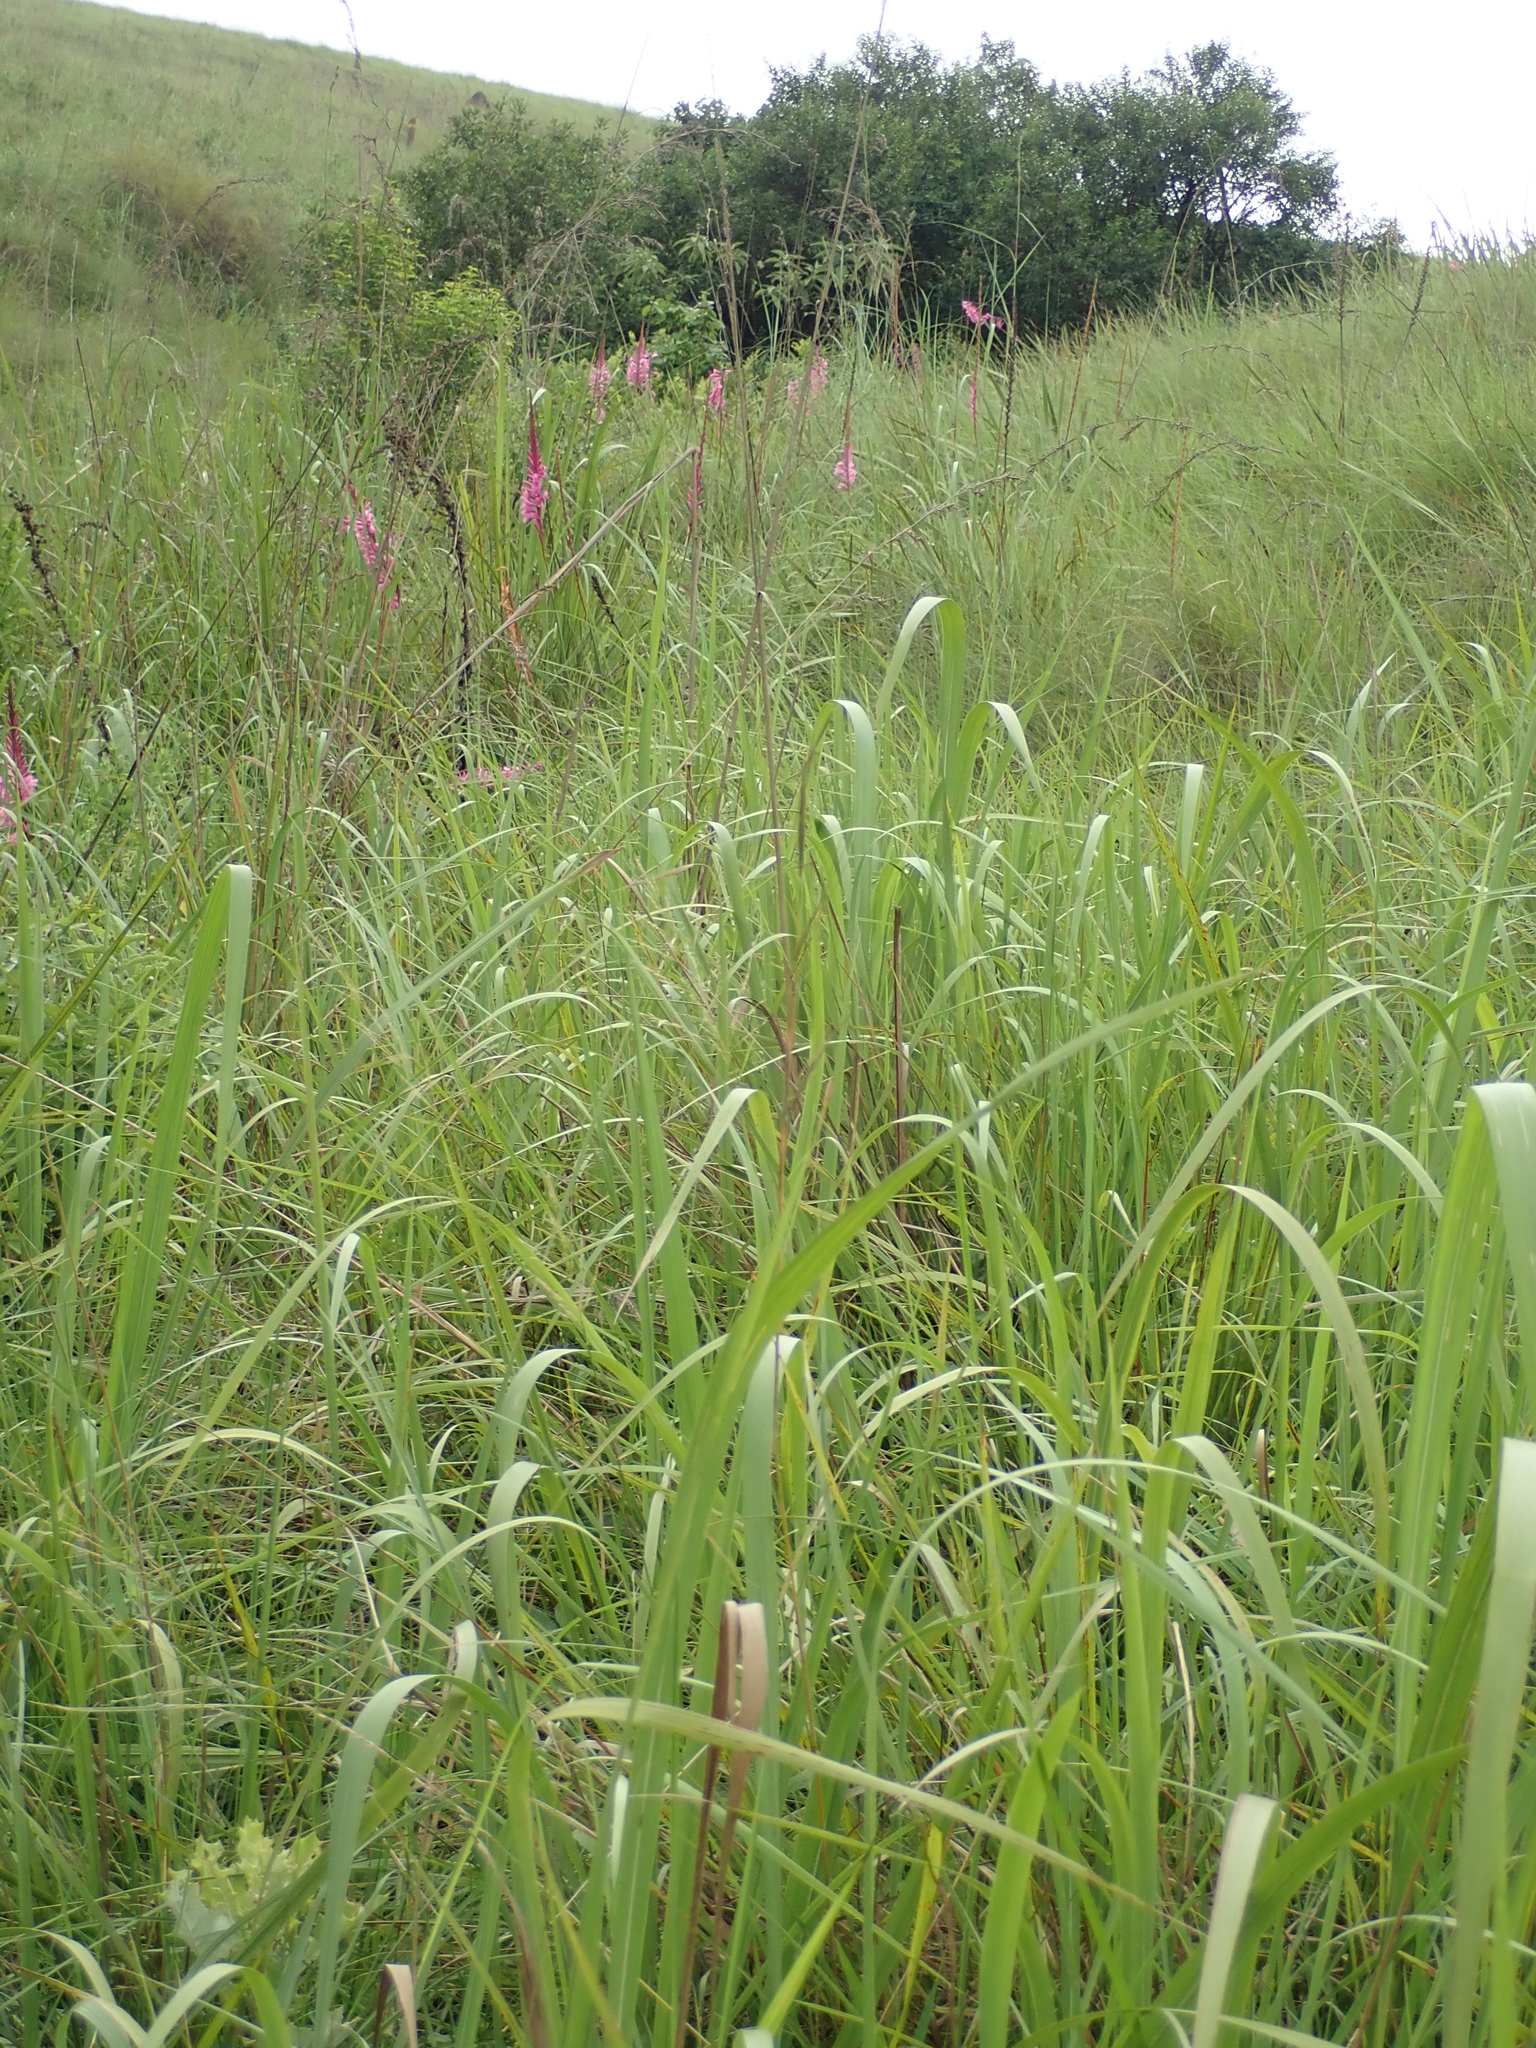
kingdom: Plantae
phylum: Tracheophyta
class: Liliopsida
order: Asparagales
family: Iridaceae
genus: Watsonia
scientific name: Watsonia confusa
